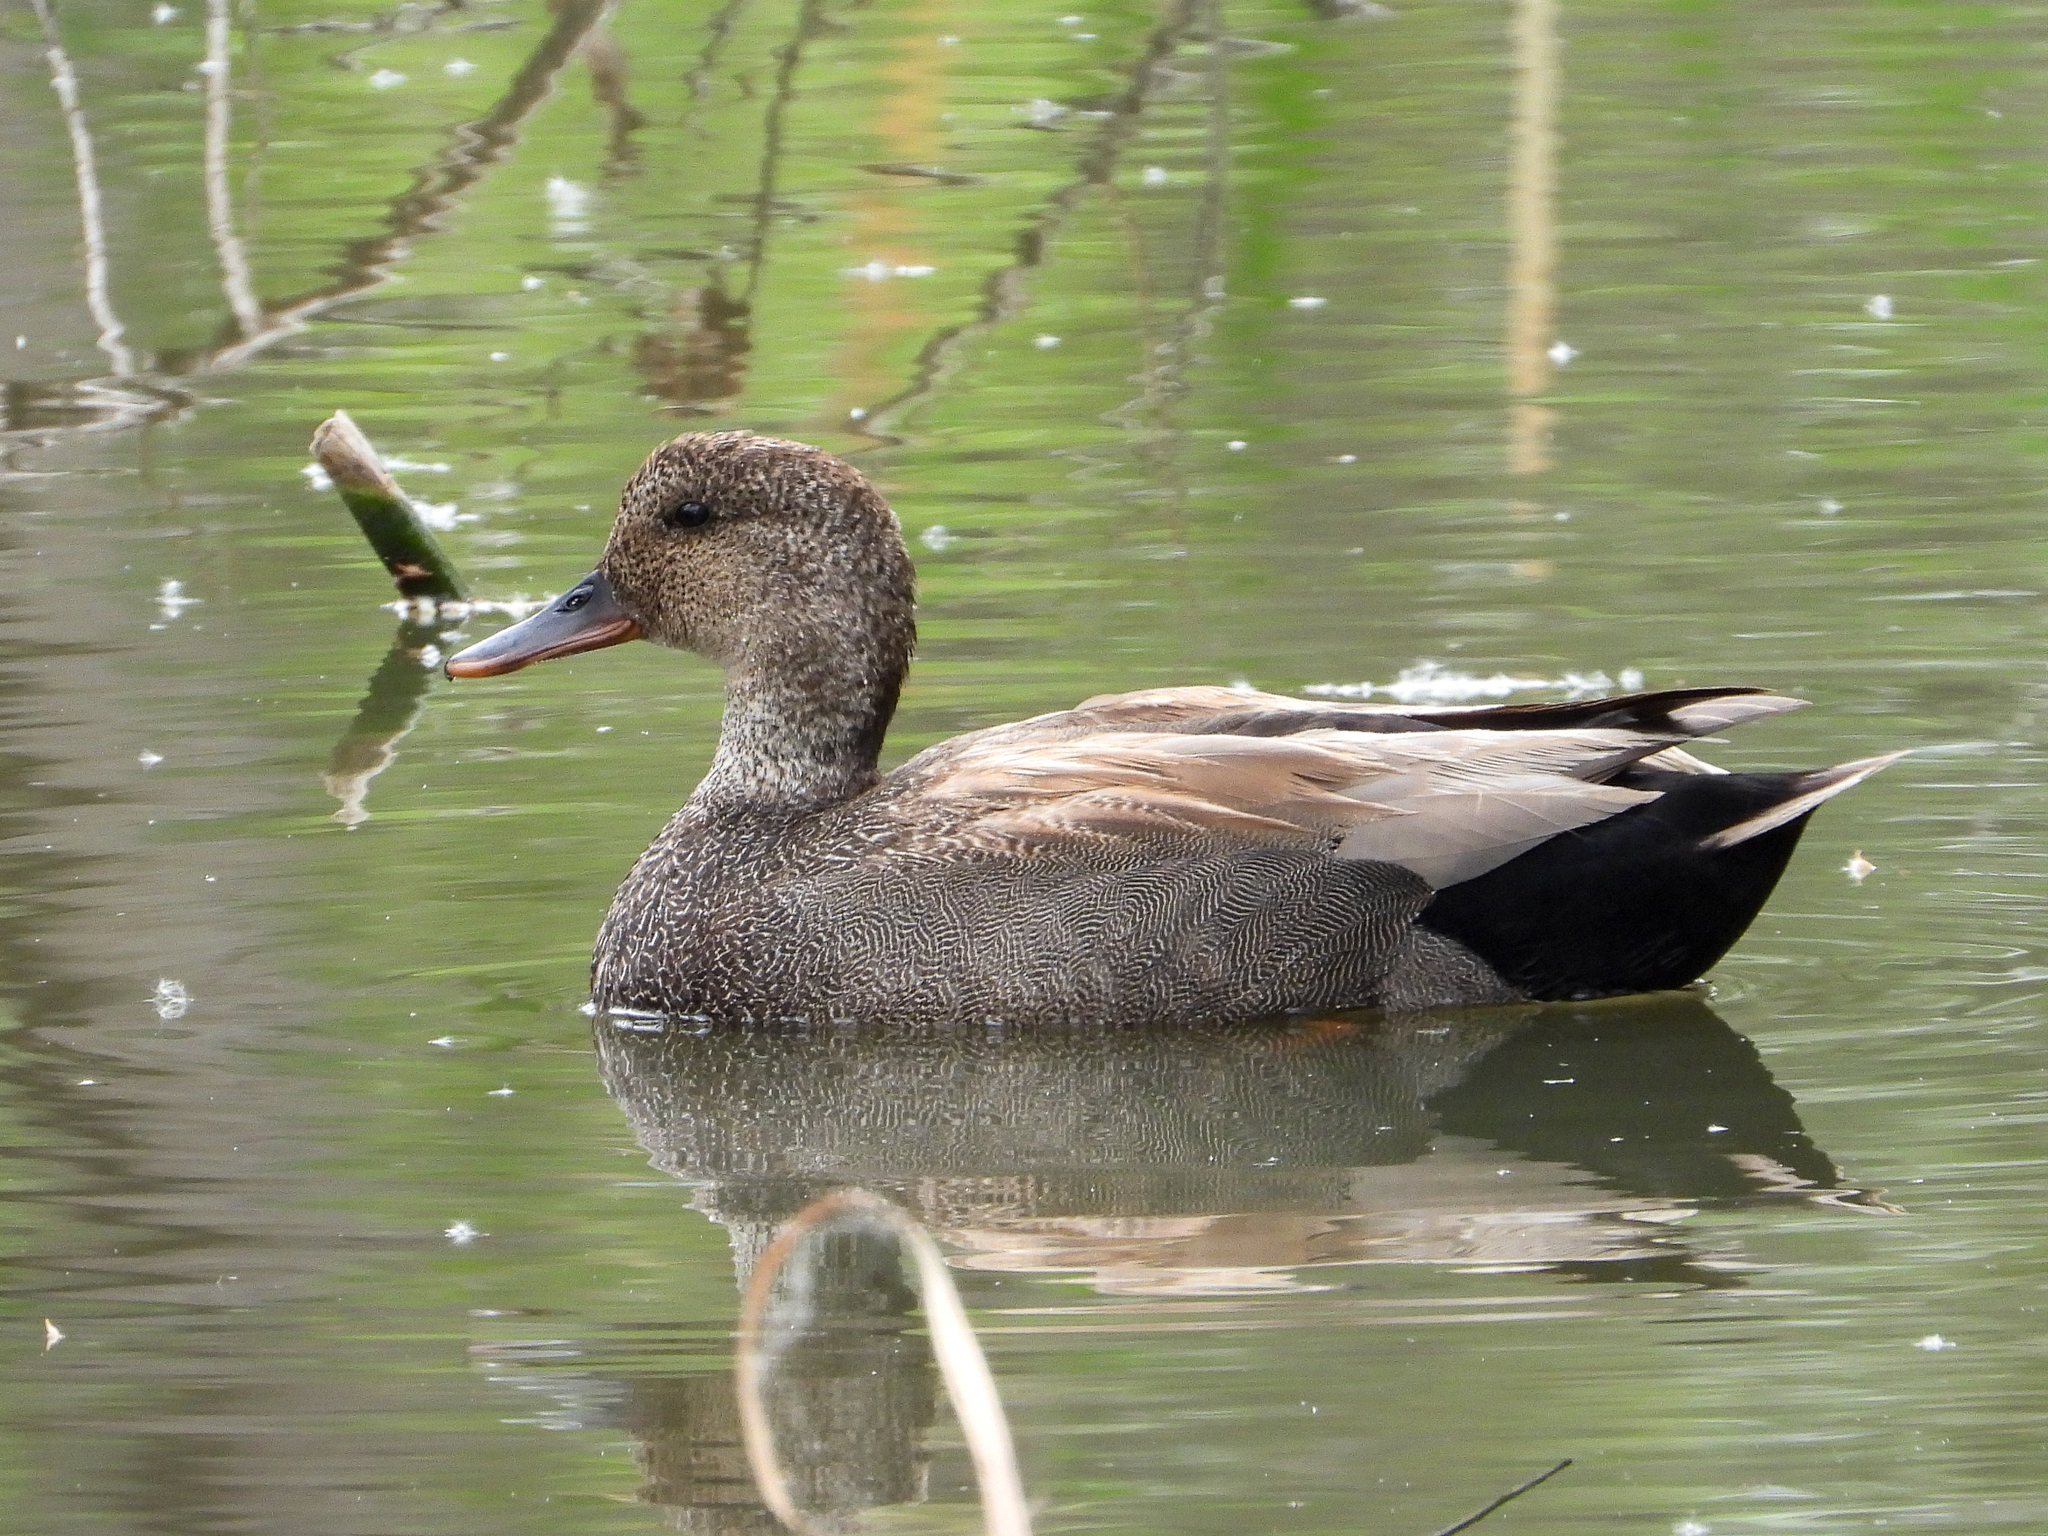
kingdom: Animalia
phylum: Chordata
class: Aves
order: Anseriformes
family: Anatidae
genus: Mareca
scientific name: Mareca strepera
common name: Gadwall
